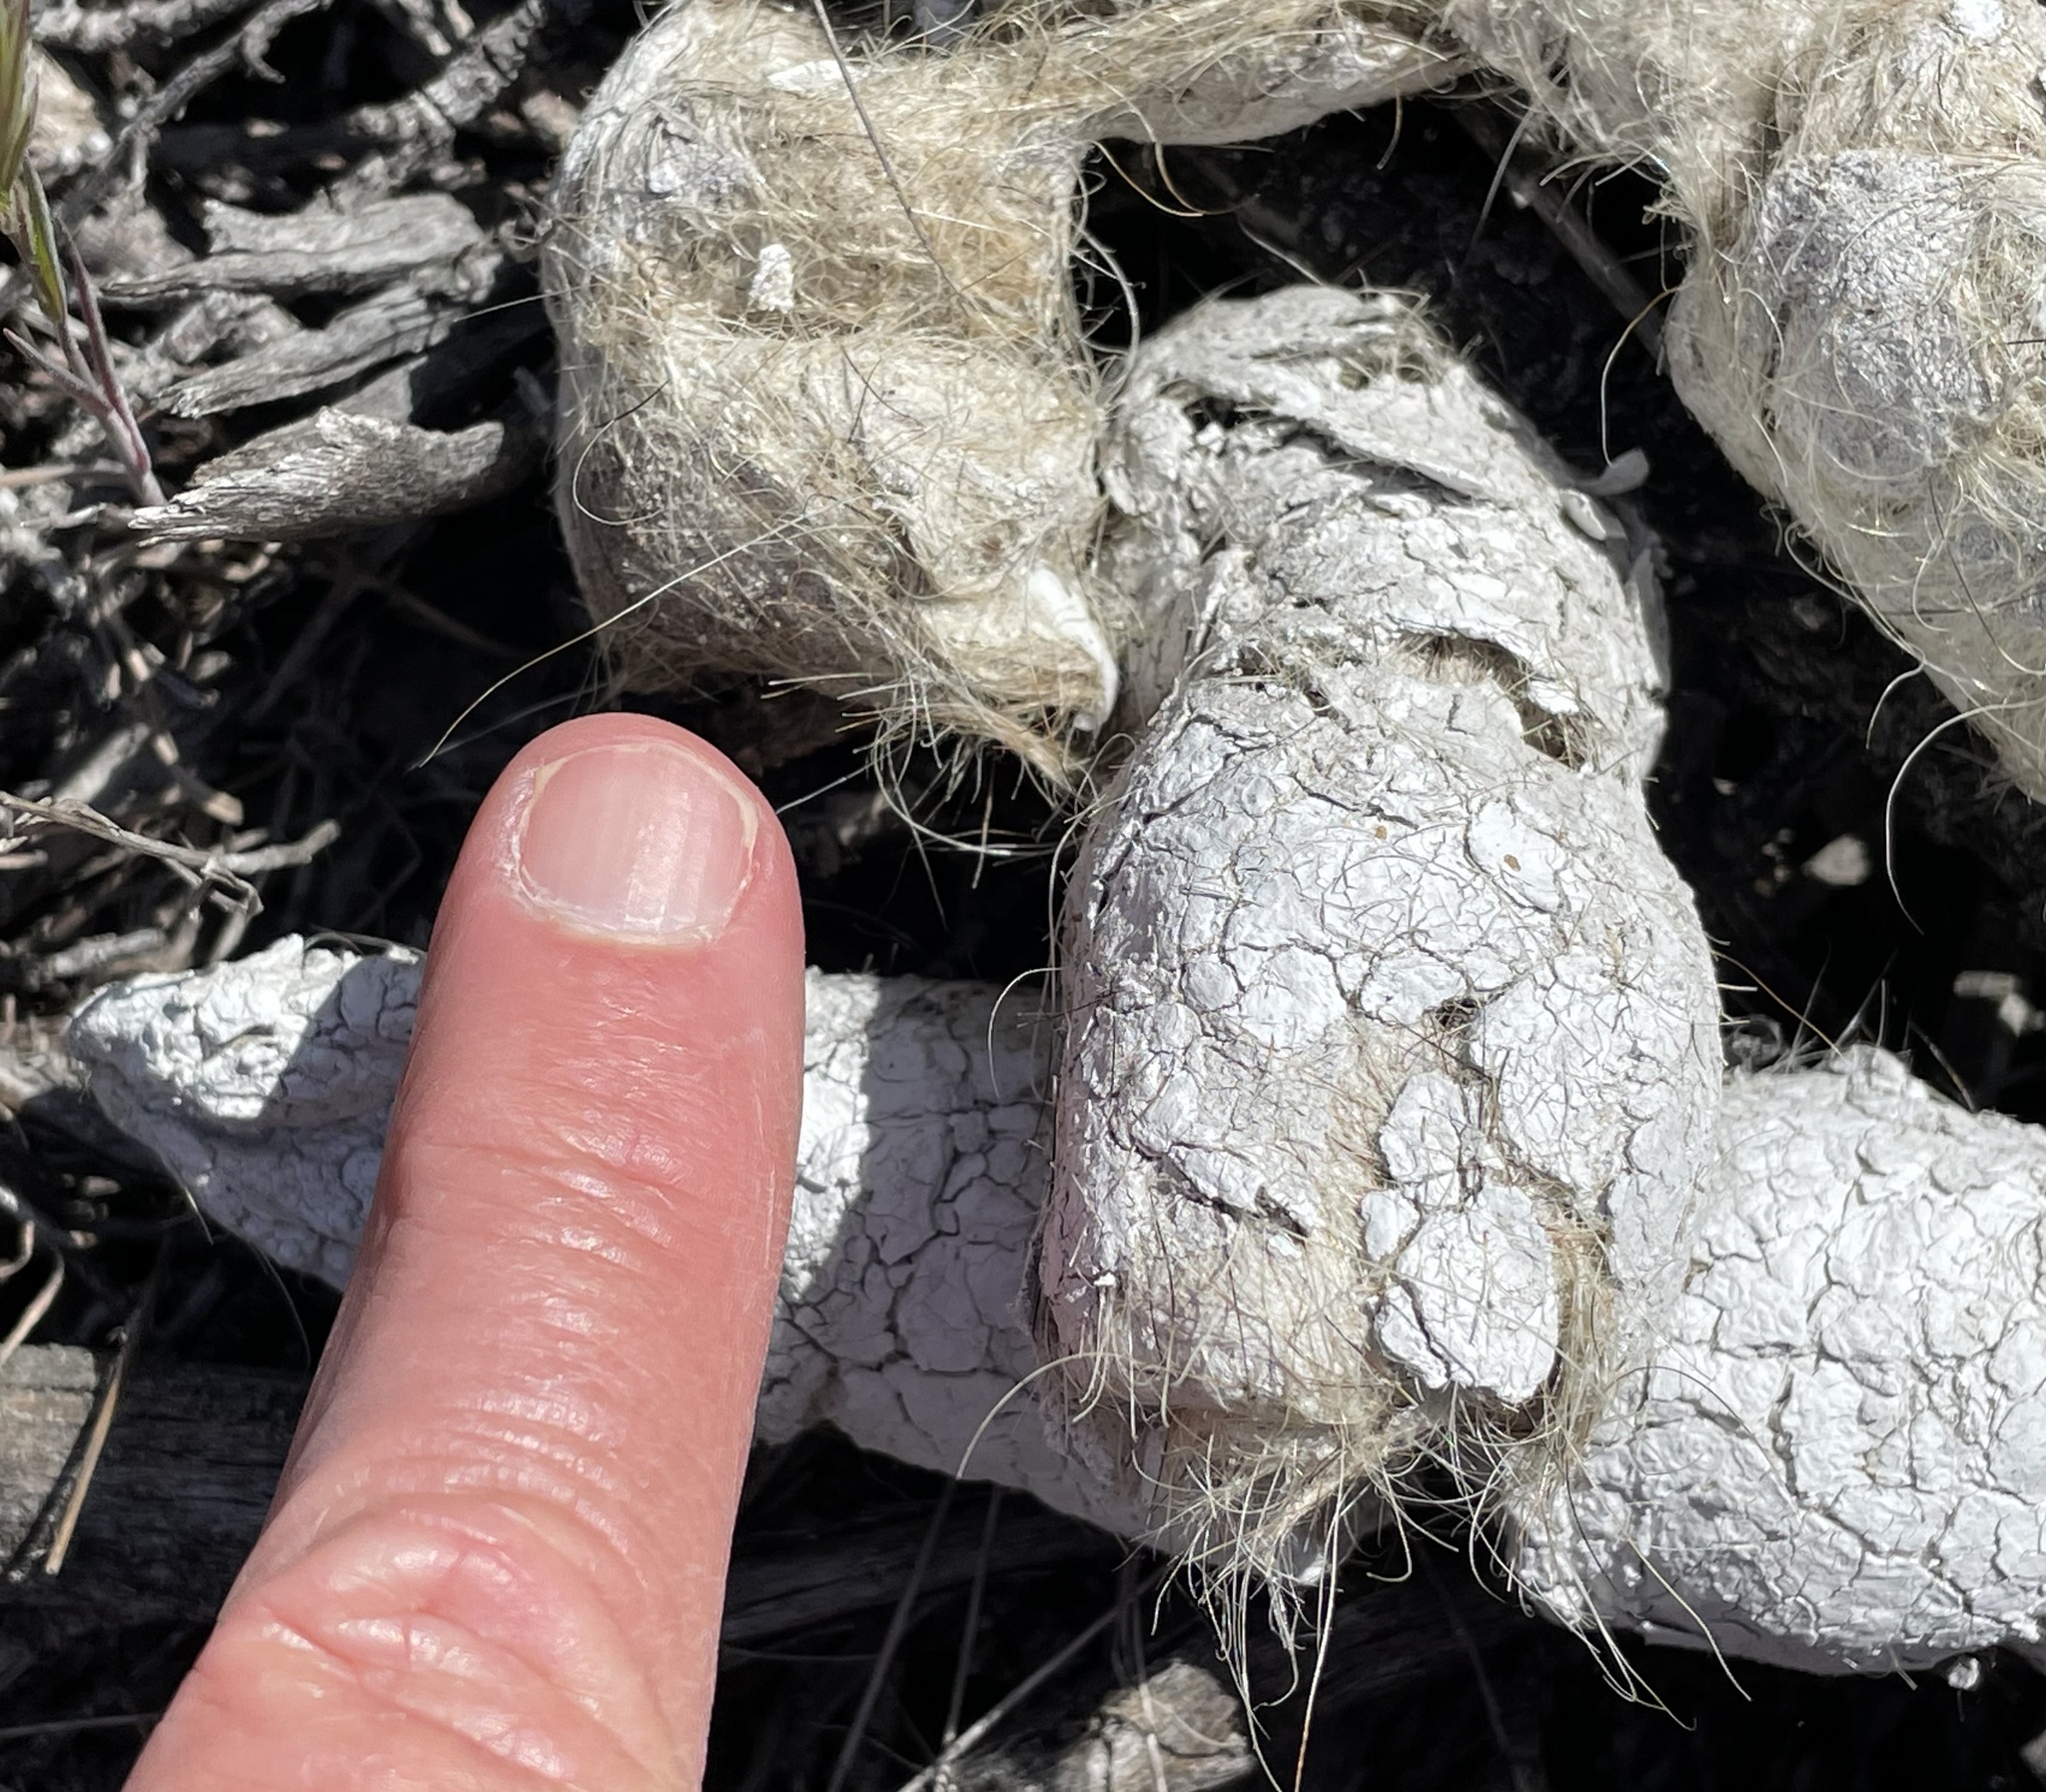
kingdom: Animalia
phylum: Chordata
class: Mammalia
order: Carnivora
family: Felidae
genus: Puma
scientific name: Puma concolor
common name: Puma
